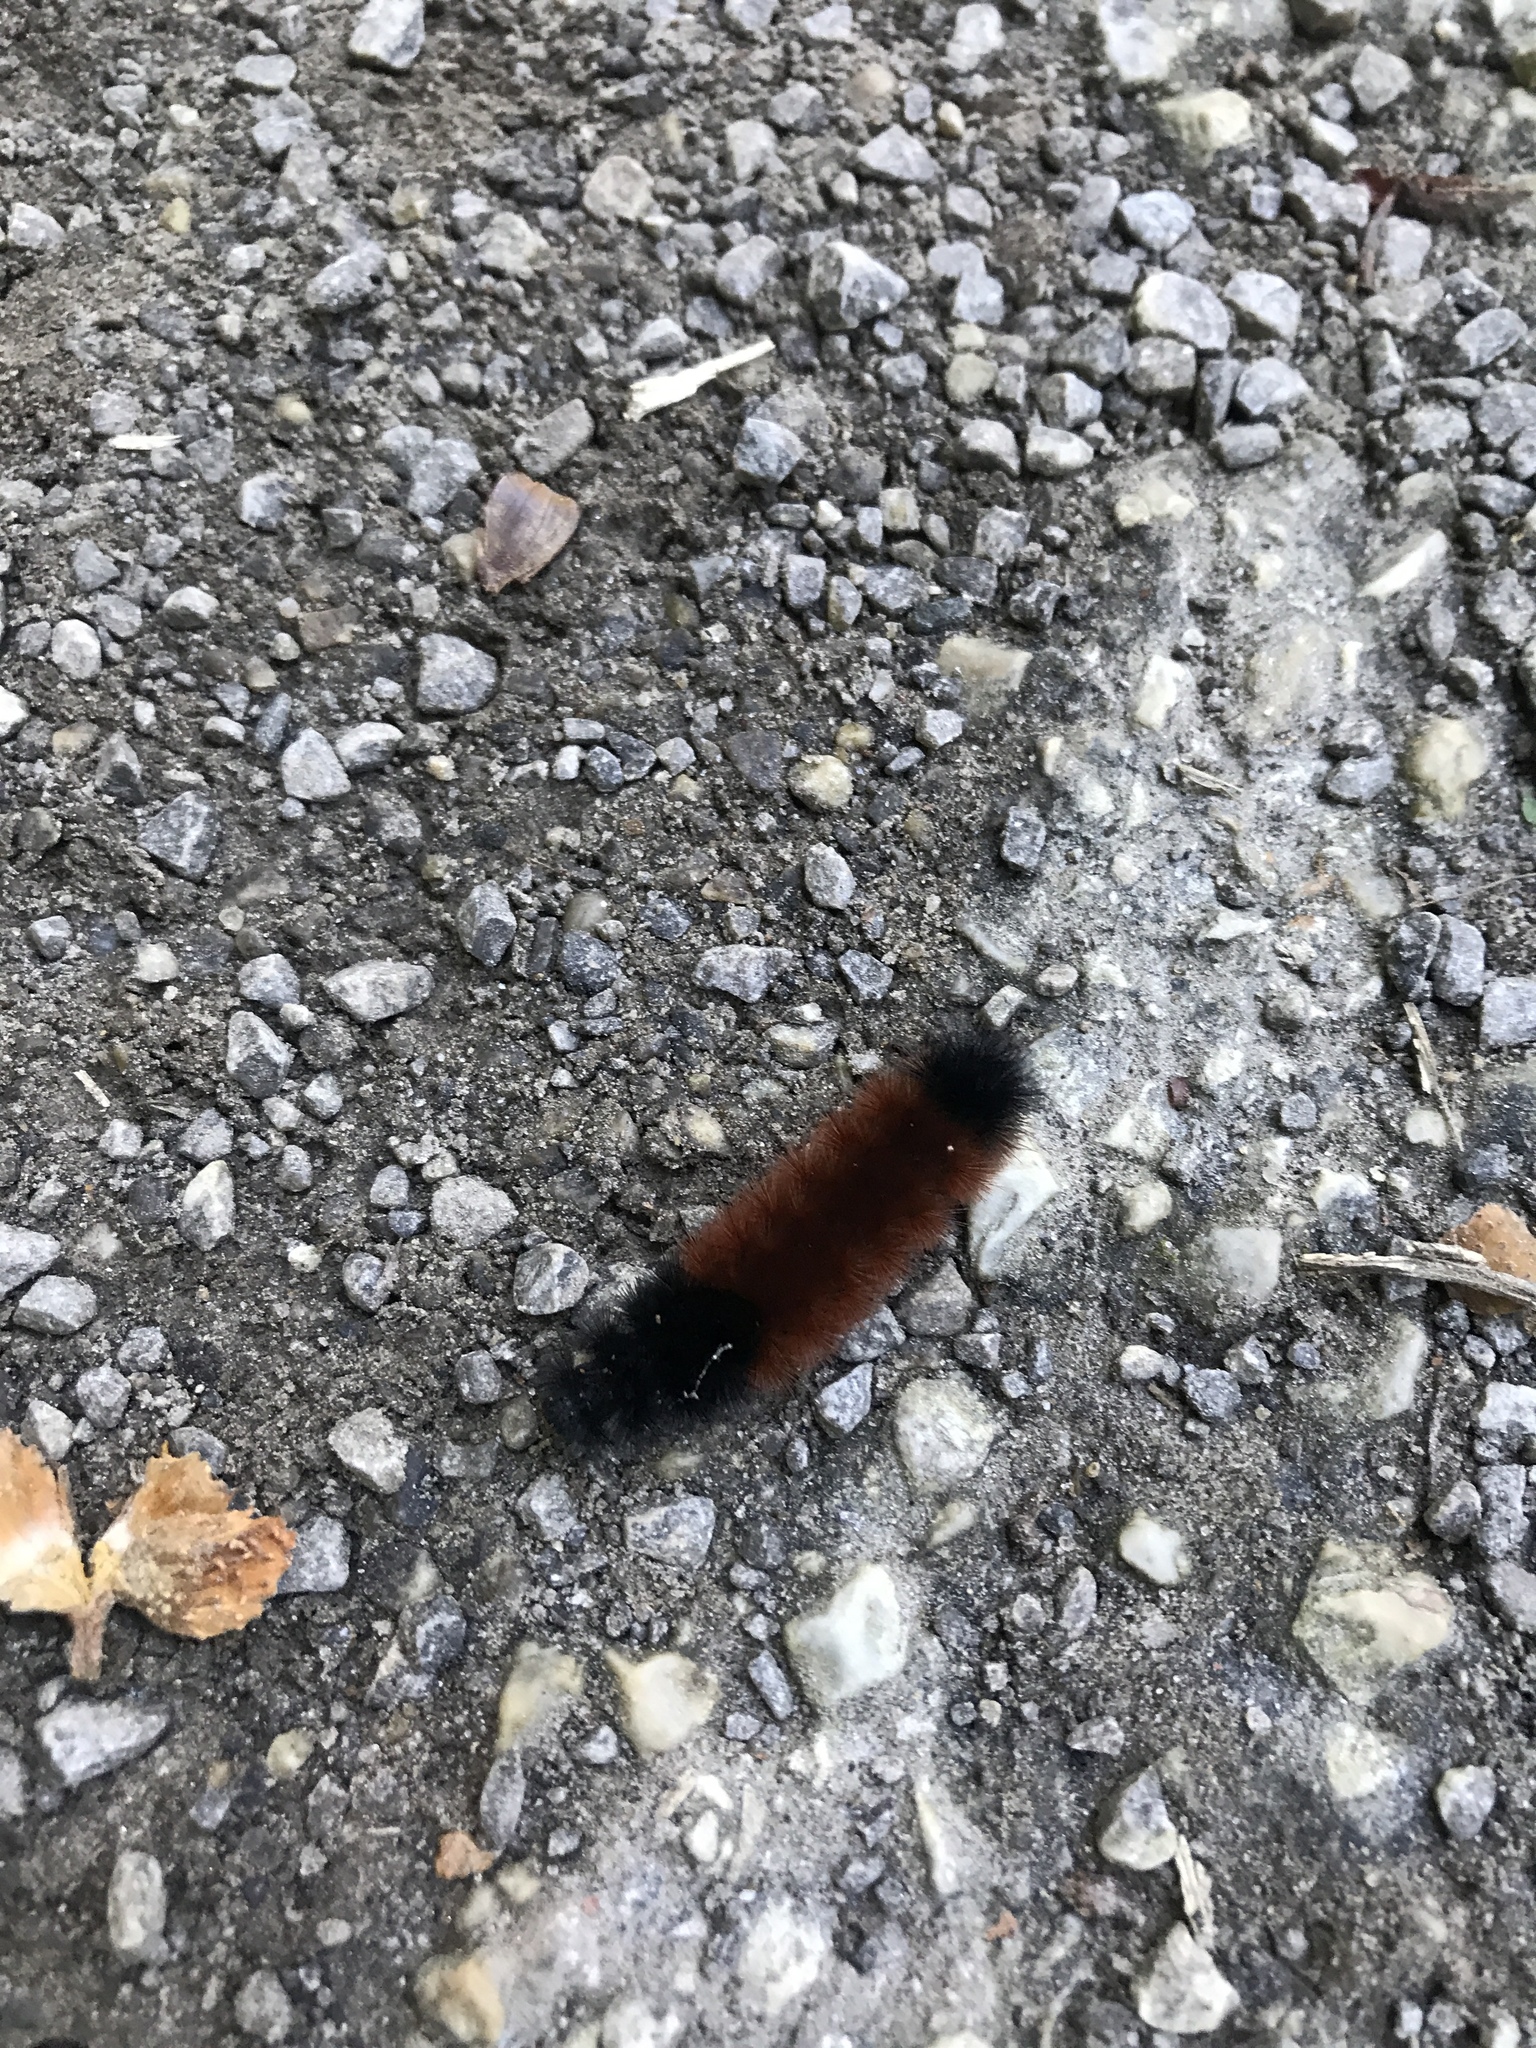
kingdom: Animalia
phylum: Arthropoda
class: Insecta
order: Lepidoptera
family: Erebidae
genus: Pyrrharctia
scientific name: Pyrrharctia isabella
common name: Isabella tiger moth
